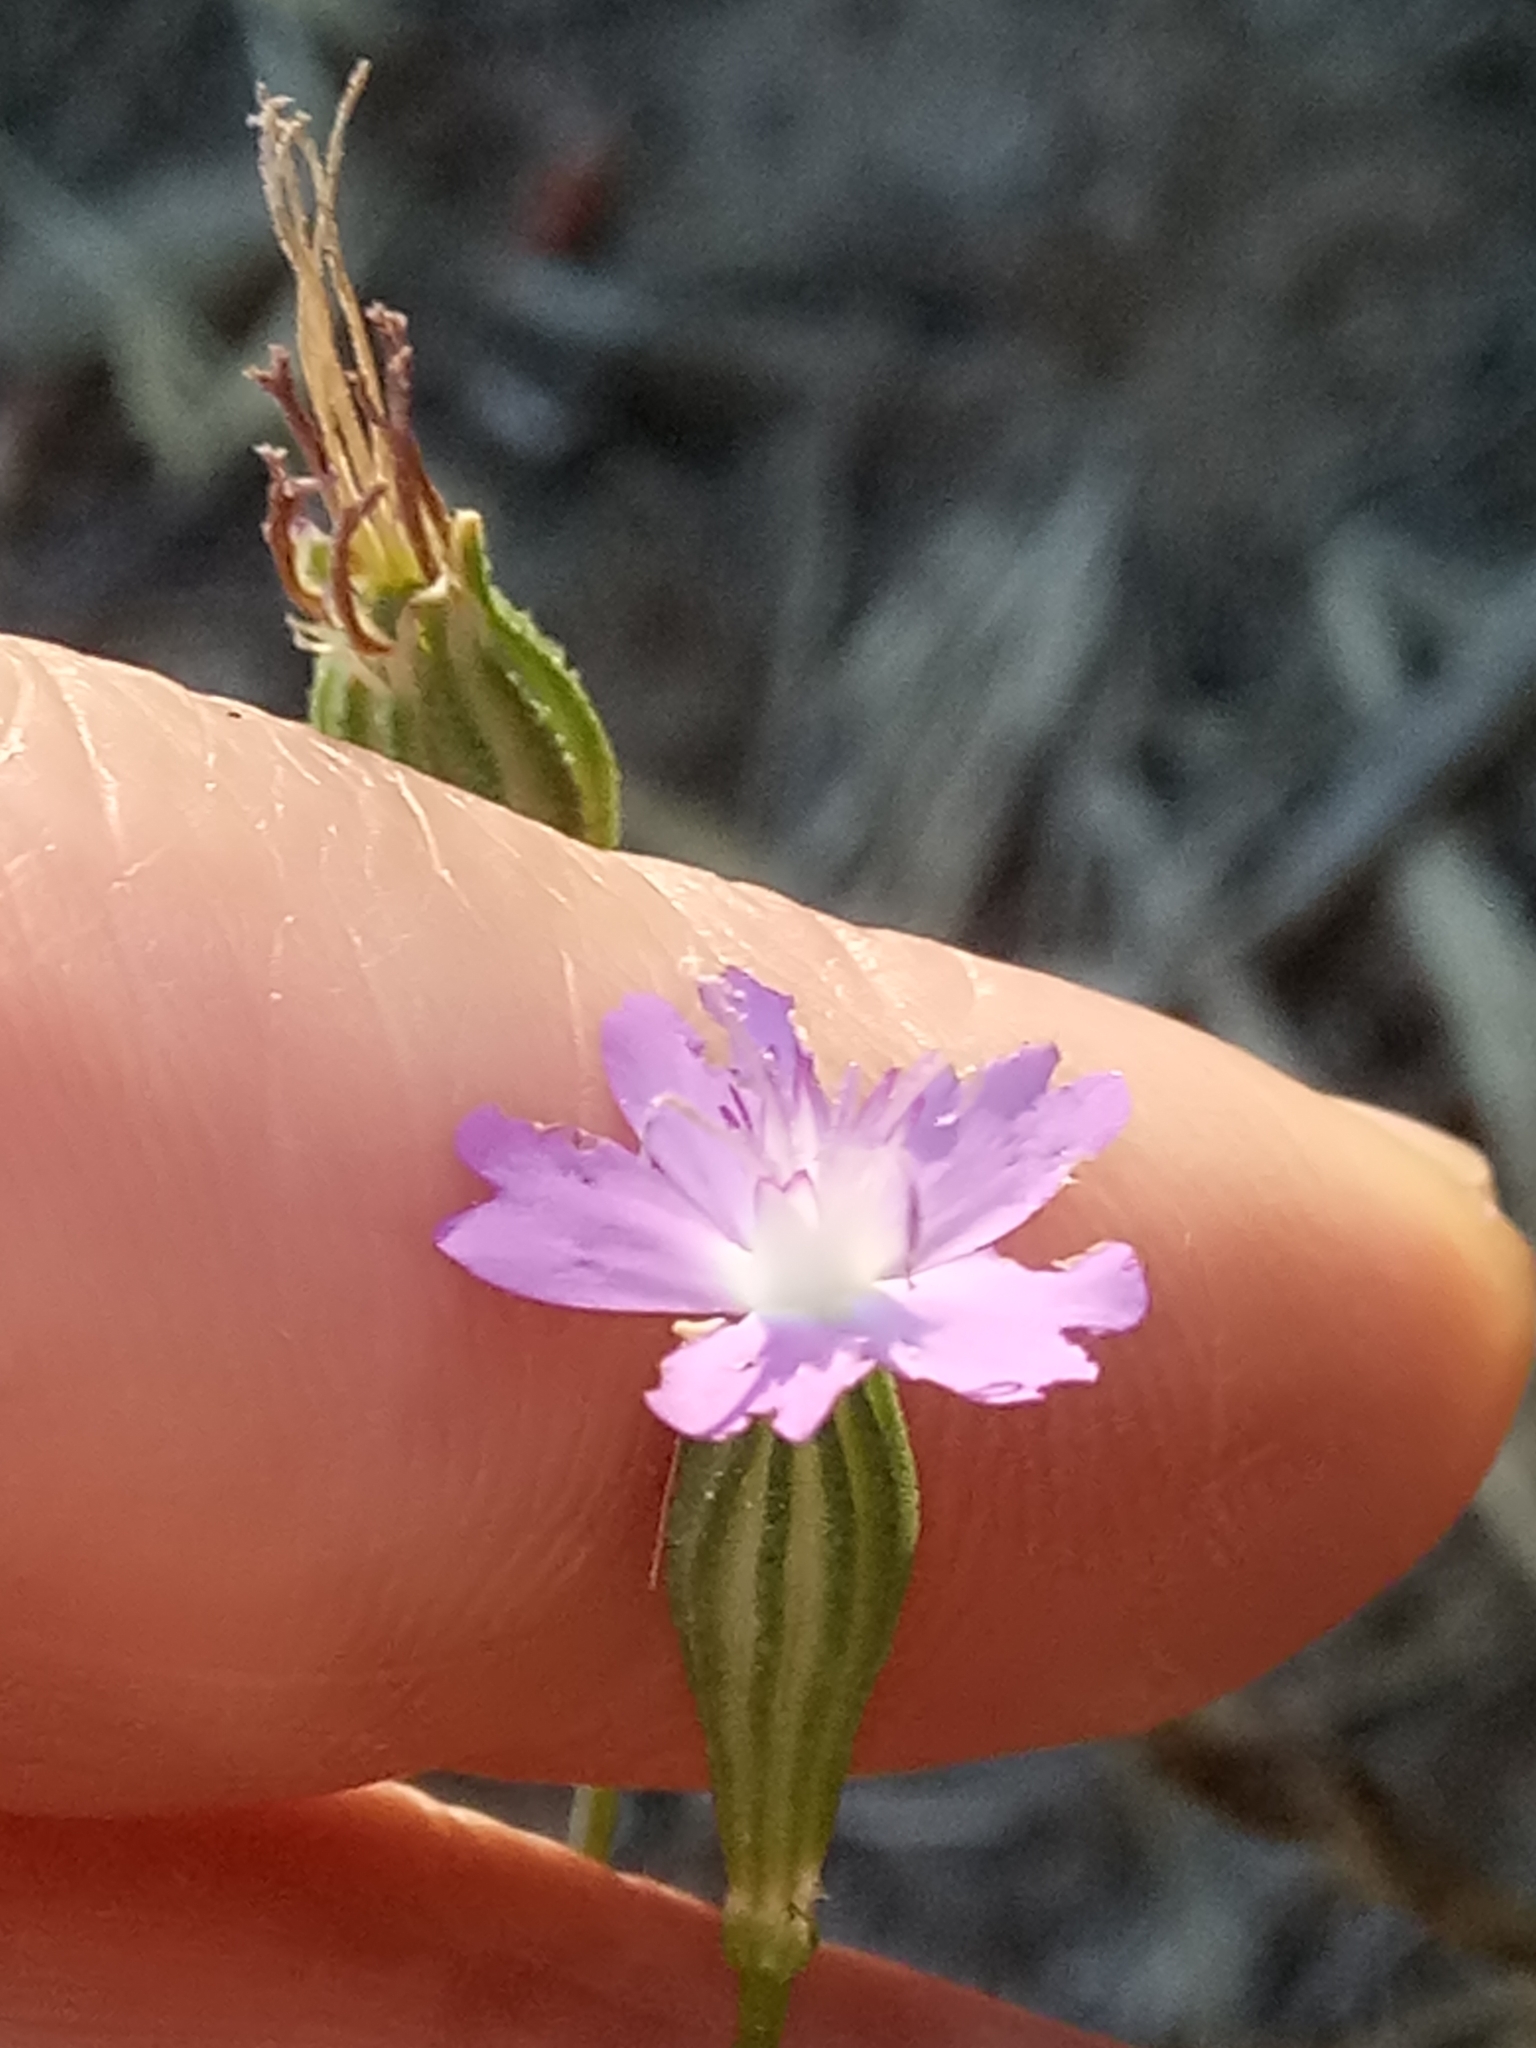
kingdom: Plantae
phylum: Tracheophyta
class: Magnoliopsida
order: Caryophyllales
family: Caryophyllaceae
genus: Eudianthe
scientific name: Eudianthe coeli-rosa
